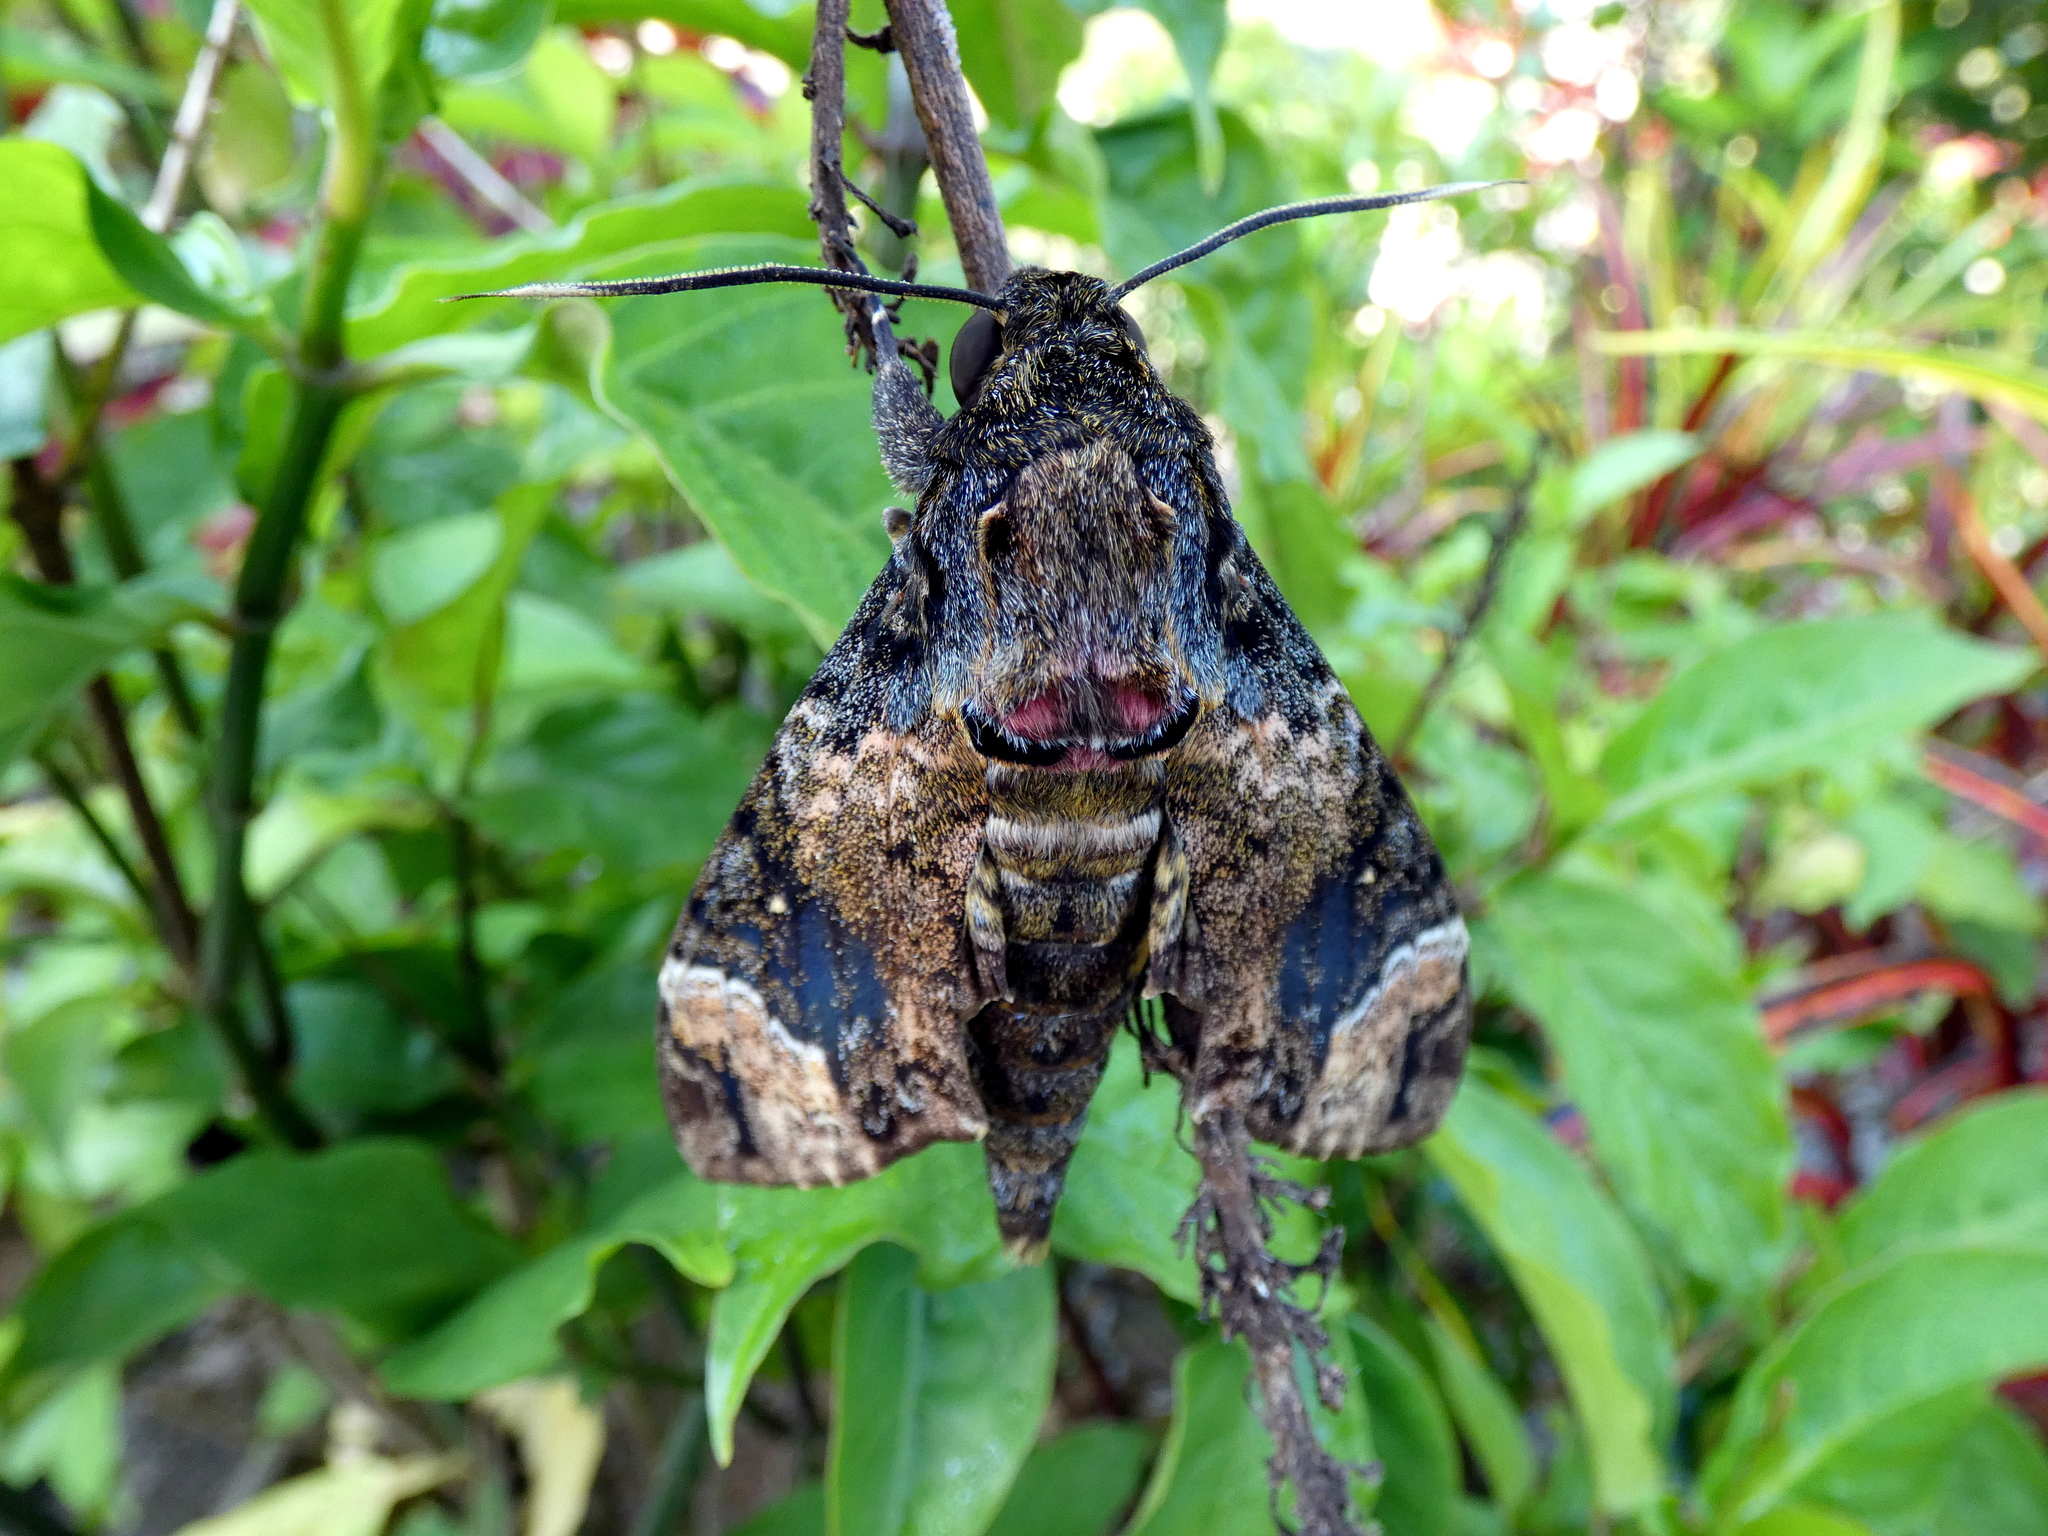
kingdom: Animalia
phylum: Arthropoda
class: Insecta
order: Lepidoptera
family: Sphingidae
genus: Coelonia
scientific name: Coelonia fulvinotata
